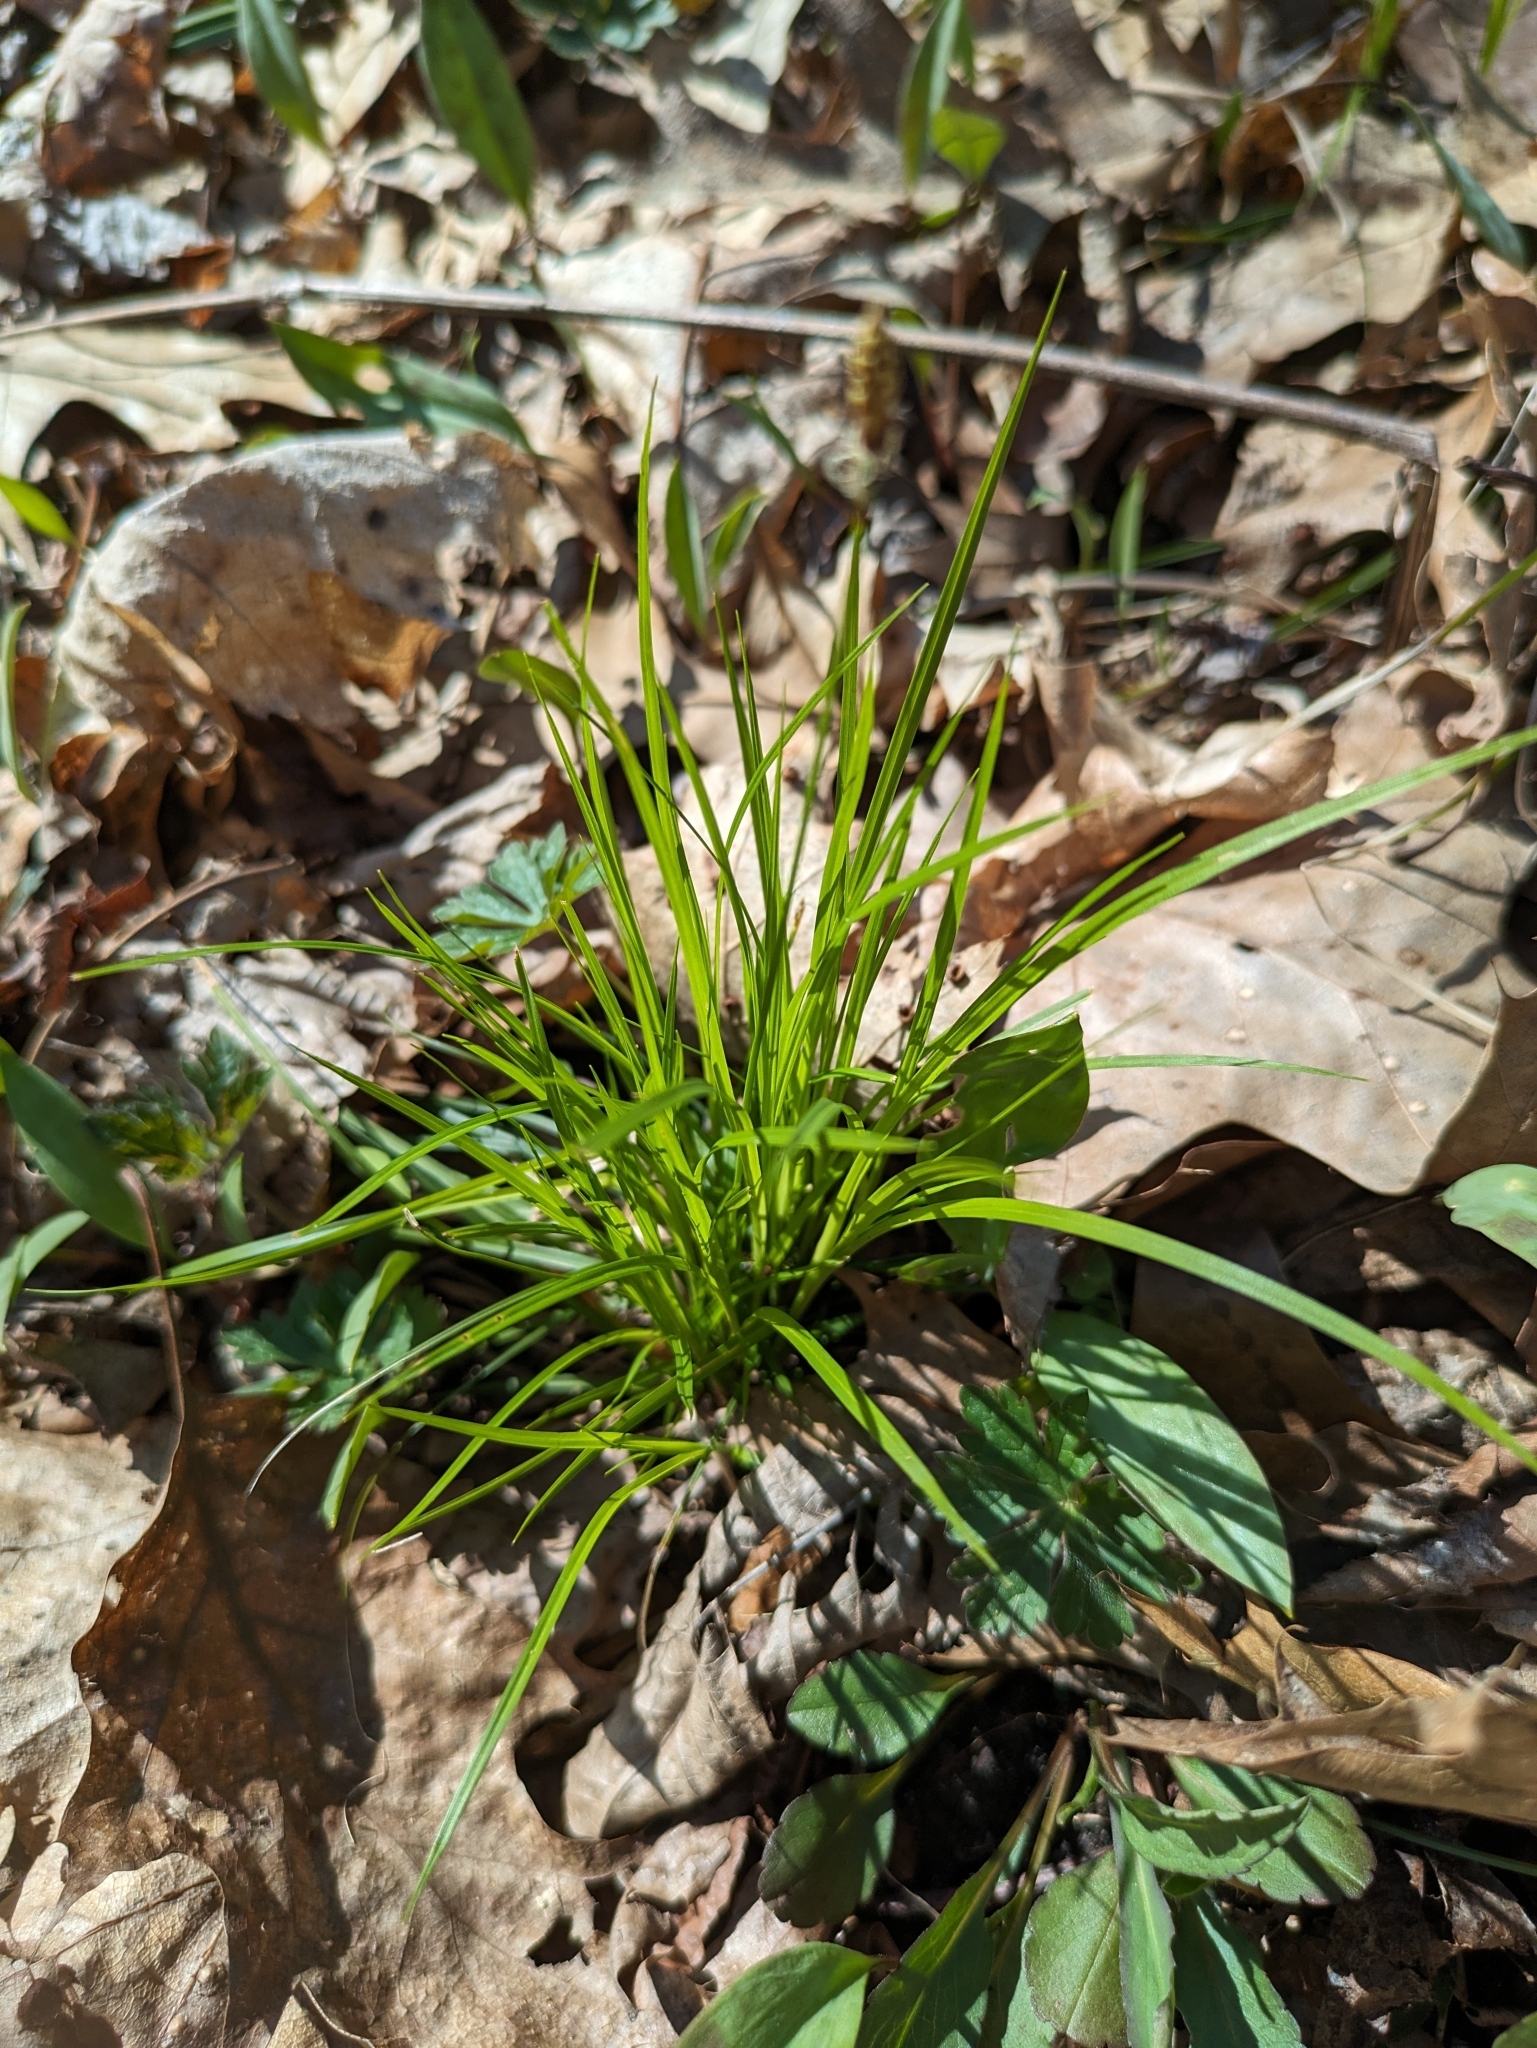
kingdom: Plantae
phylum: Tracheophyta
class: Liliopsida
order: Poales
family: Cyperaceae
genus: Carex
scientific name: Carex pensylvanica
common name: Common oak sedge
